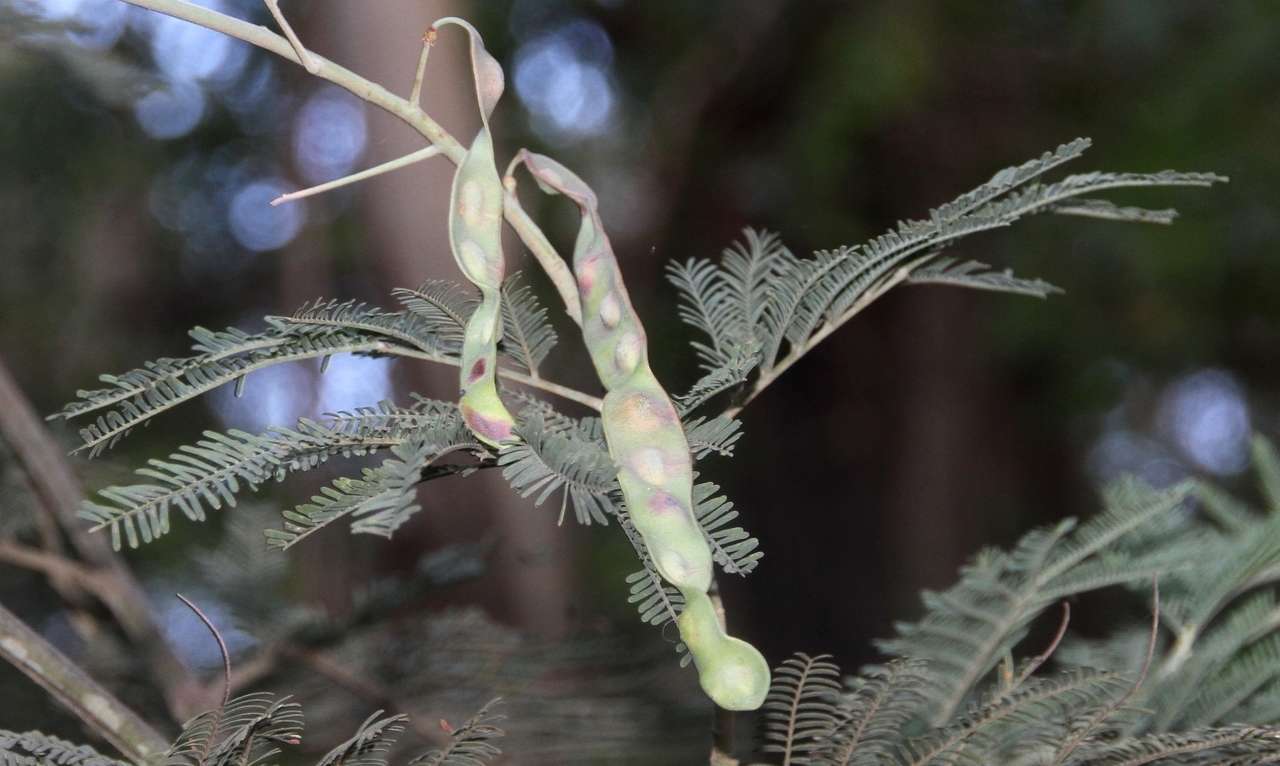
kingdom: Plantae
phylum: Tracheophyta
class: Magnoliopsida
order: Fabales
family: Fabaceae
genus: Acacia
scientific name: Acacia dealbata
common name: Silver wattle
